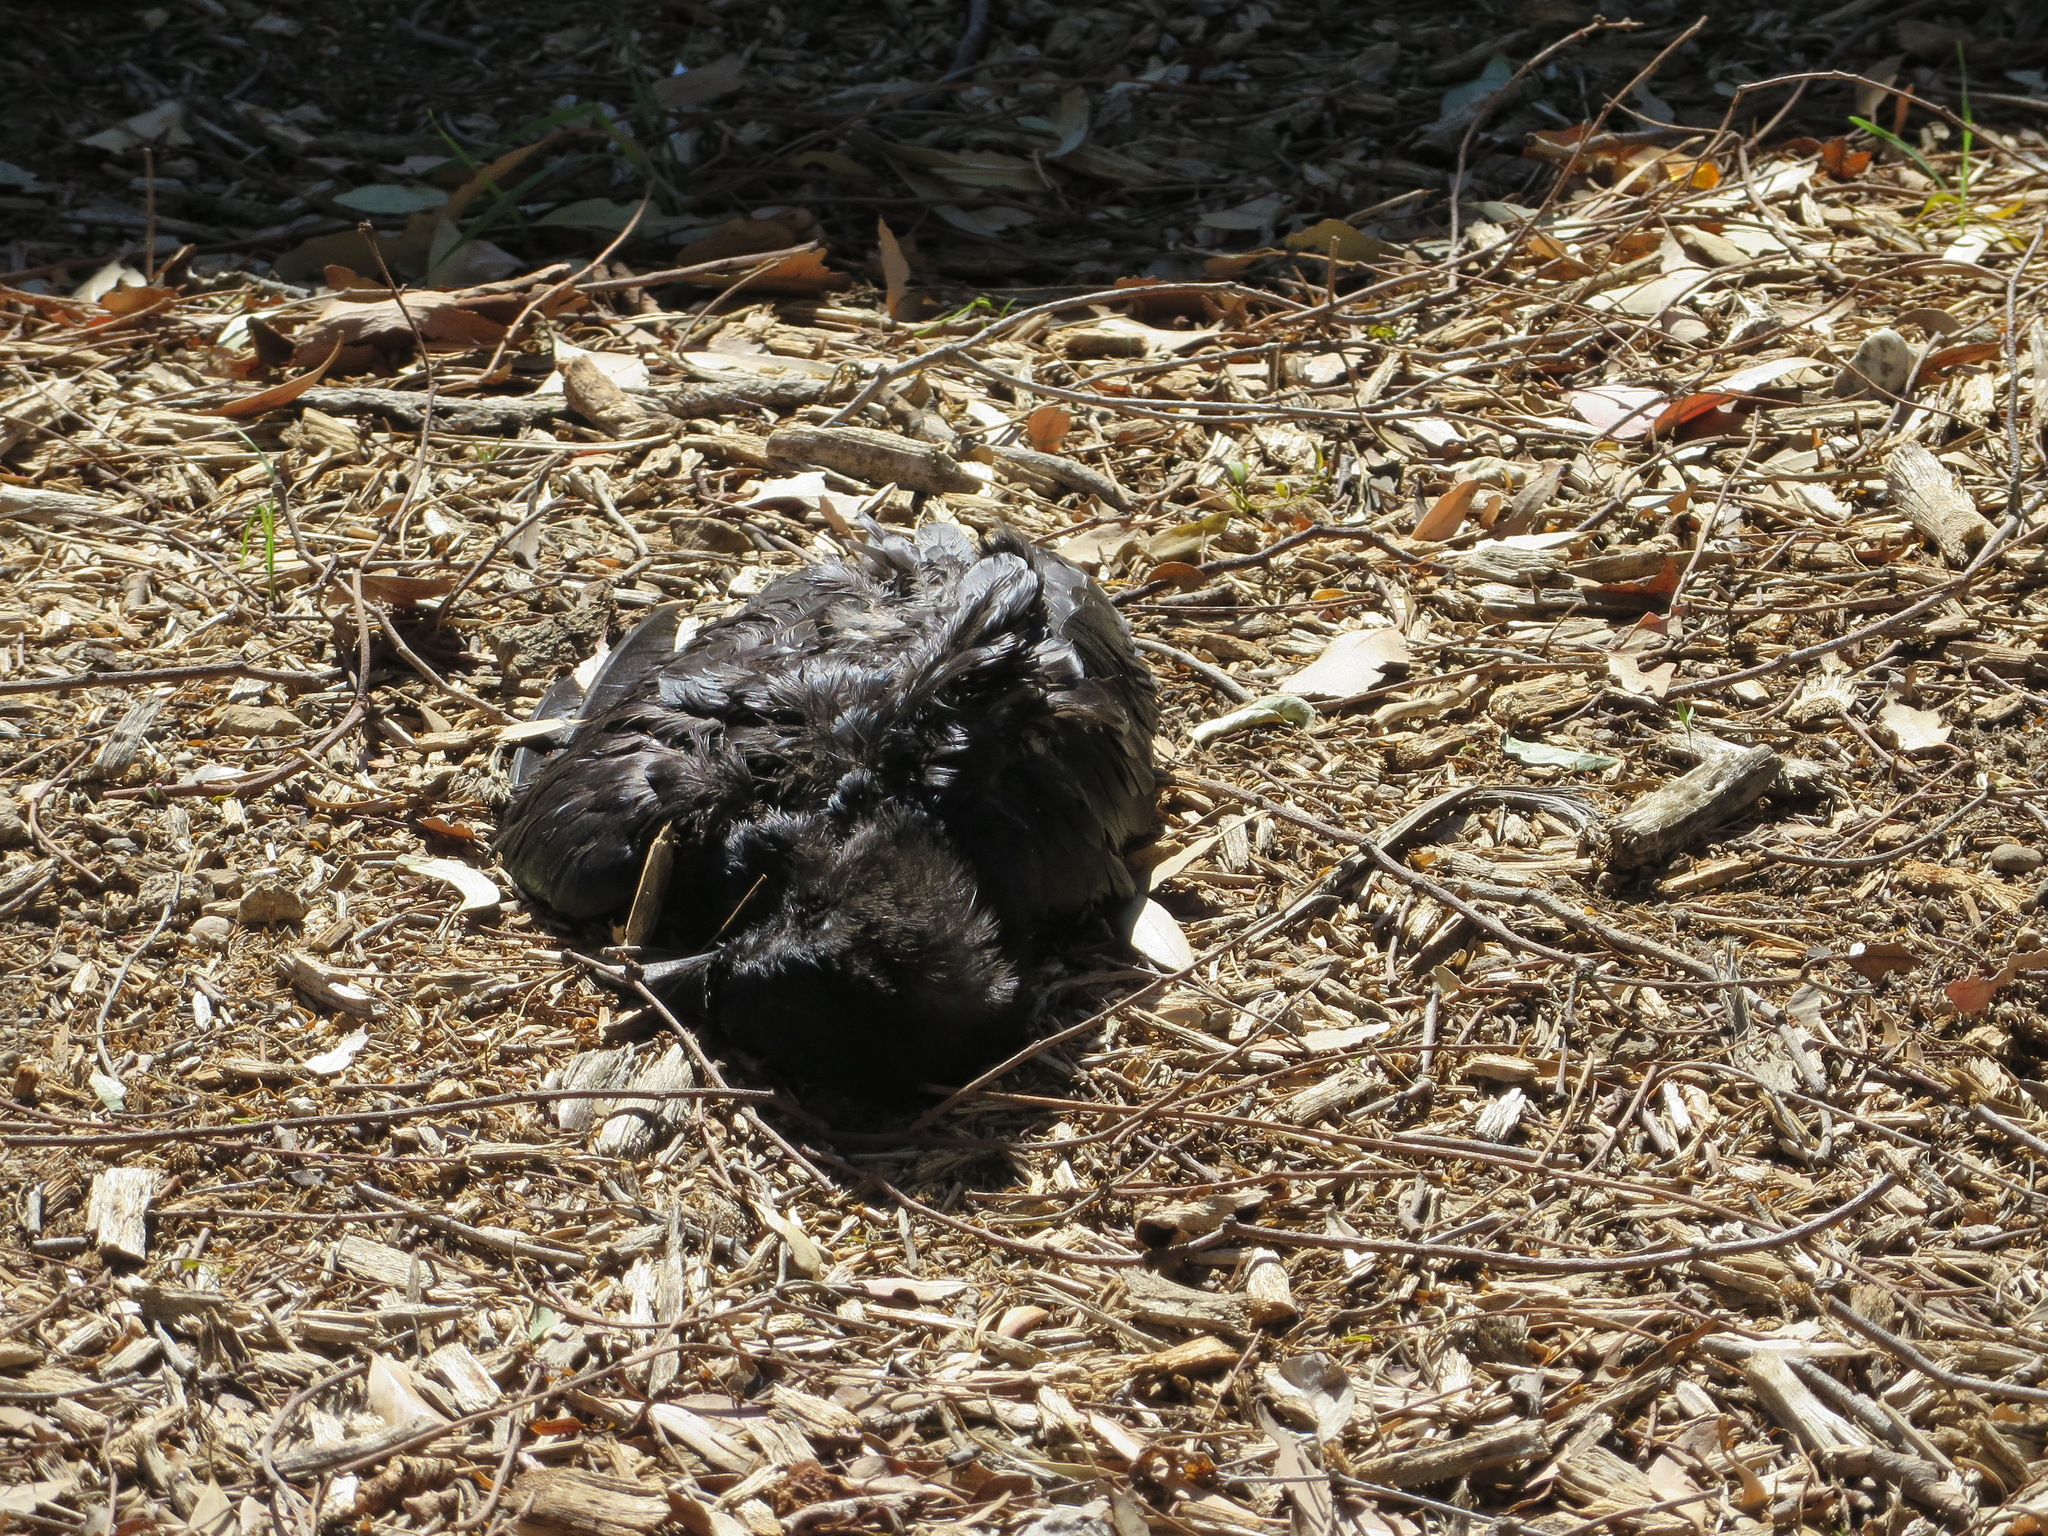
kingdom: Animalia
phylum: Chordata
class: Aves
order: Passeriformes
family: Corvidae
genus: Corvus
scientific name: Corvus brachyrhynchos
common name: American crow
